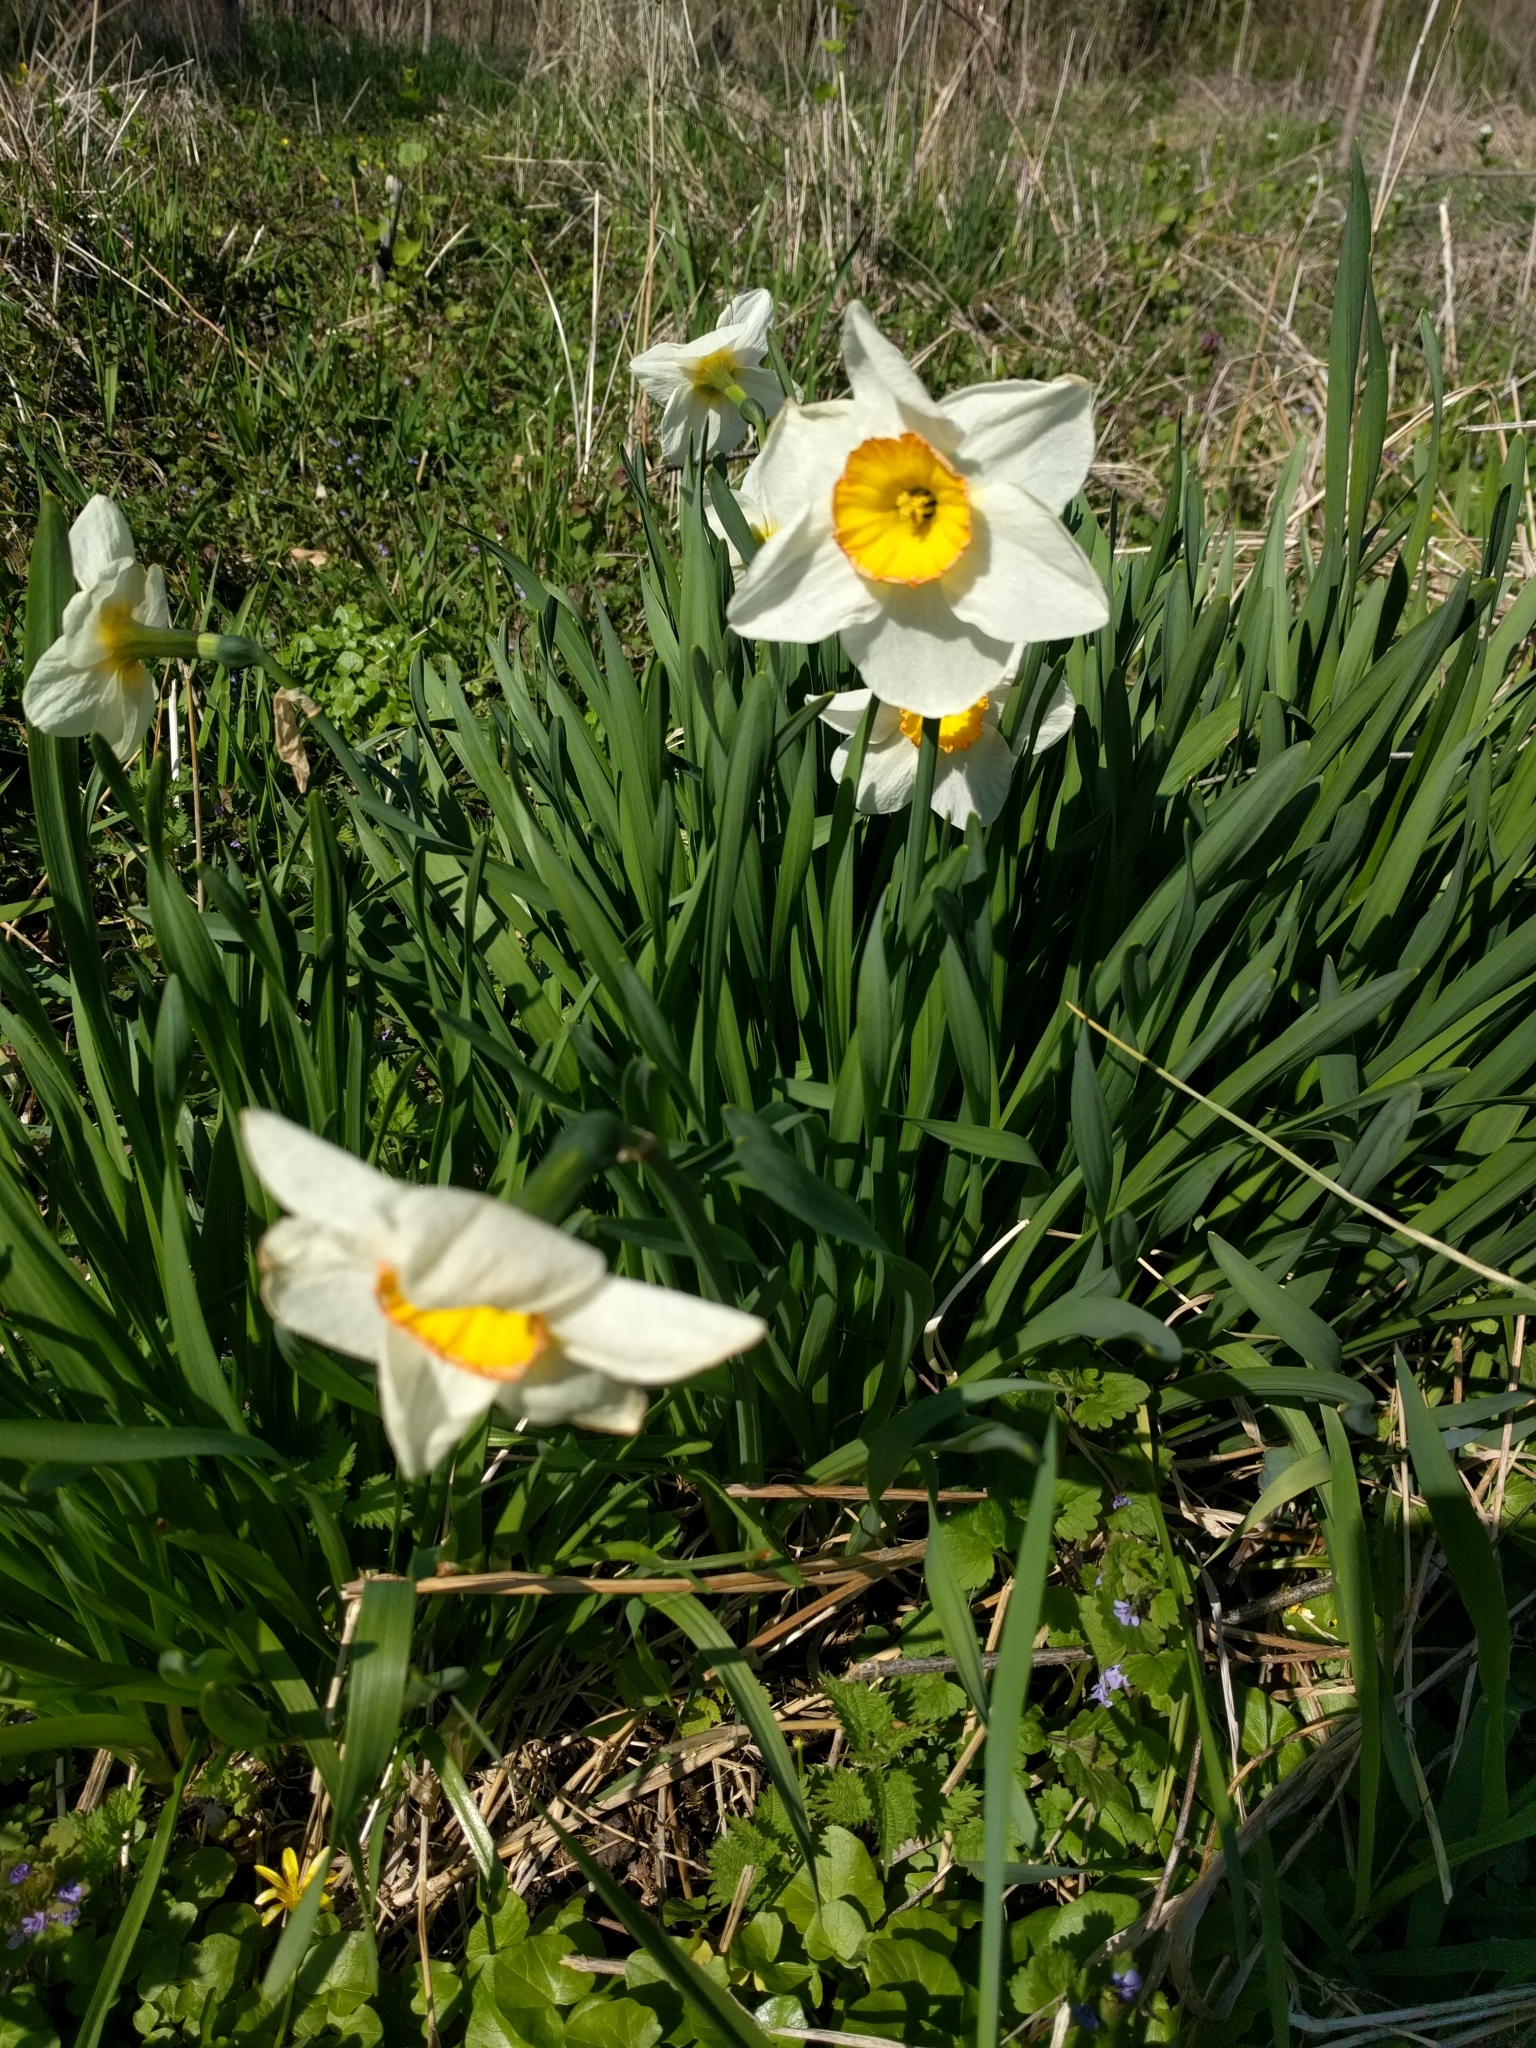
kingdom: Plantae
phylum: Tracheophyta
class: Liliopsida
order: Asparagales
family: Amaryllidaceae
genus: Narcissus
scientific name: Narcissus poeticus
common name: Pheasant's-eye daffodil
